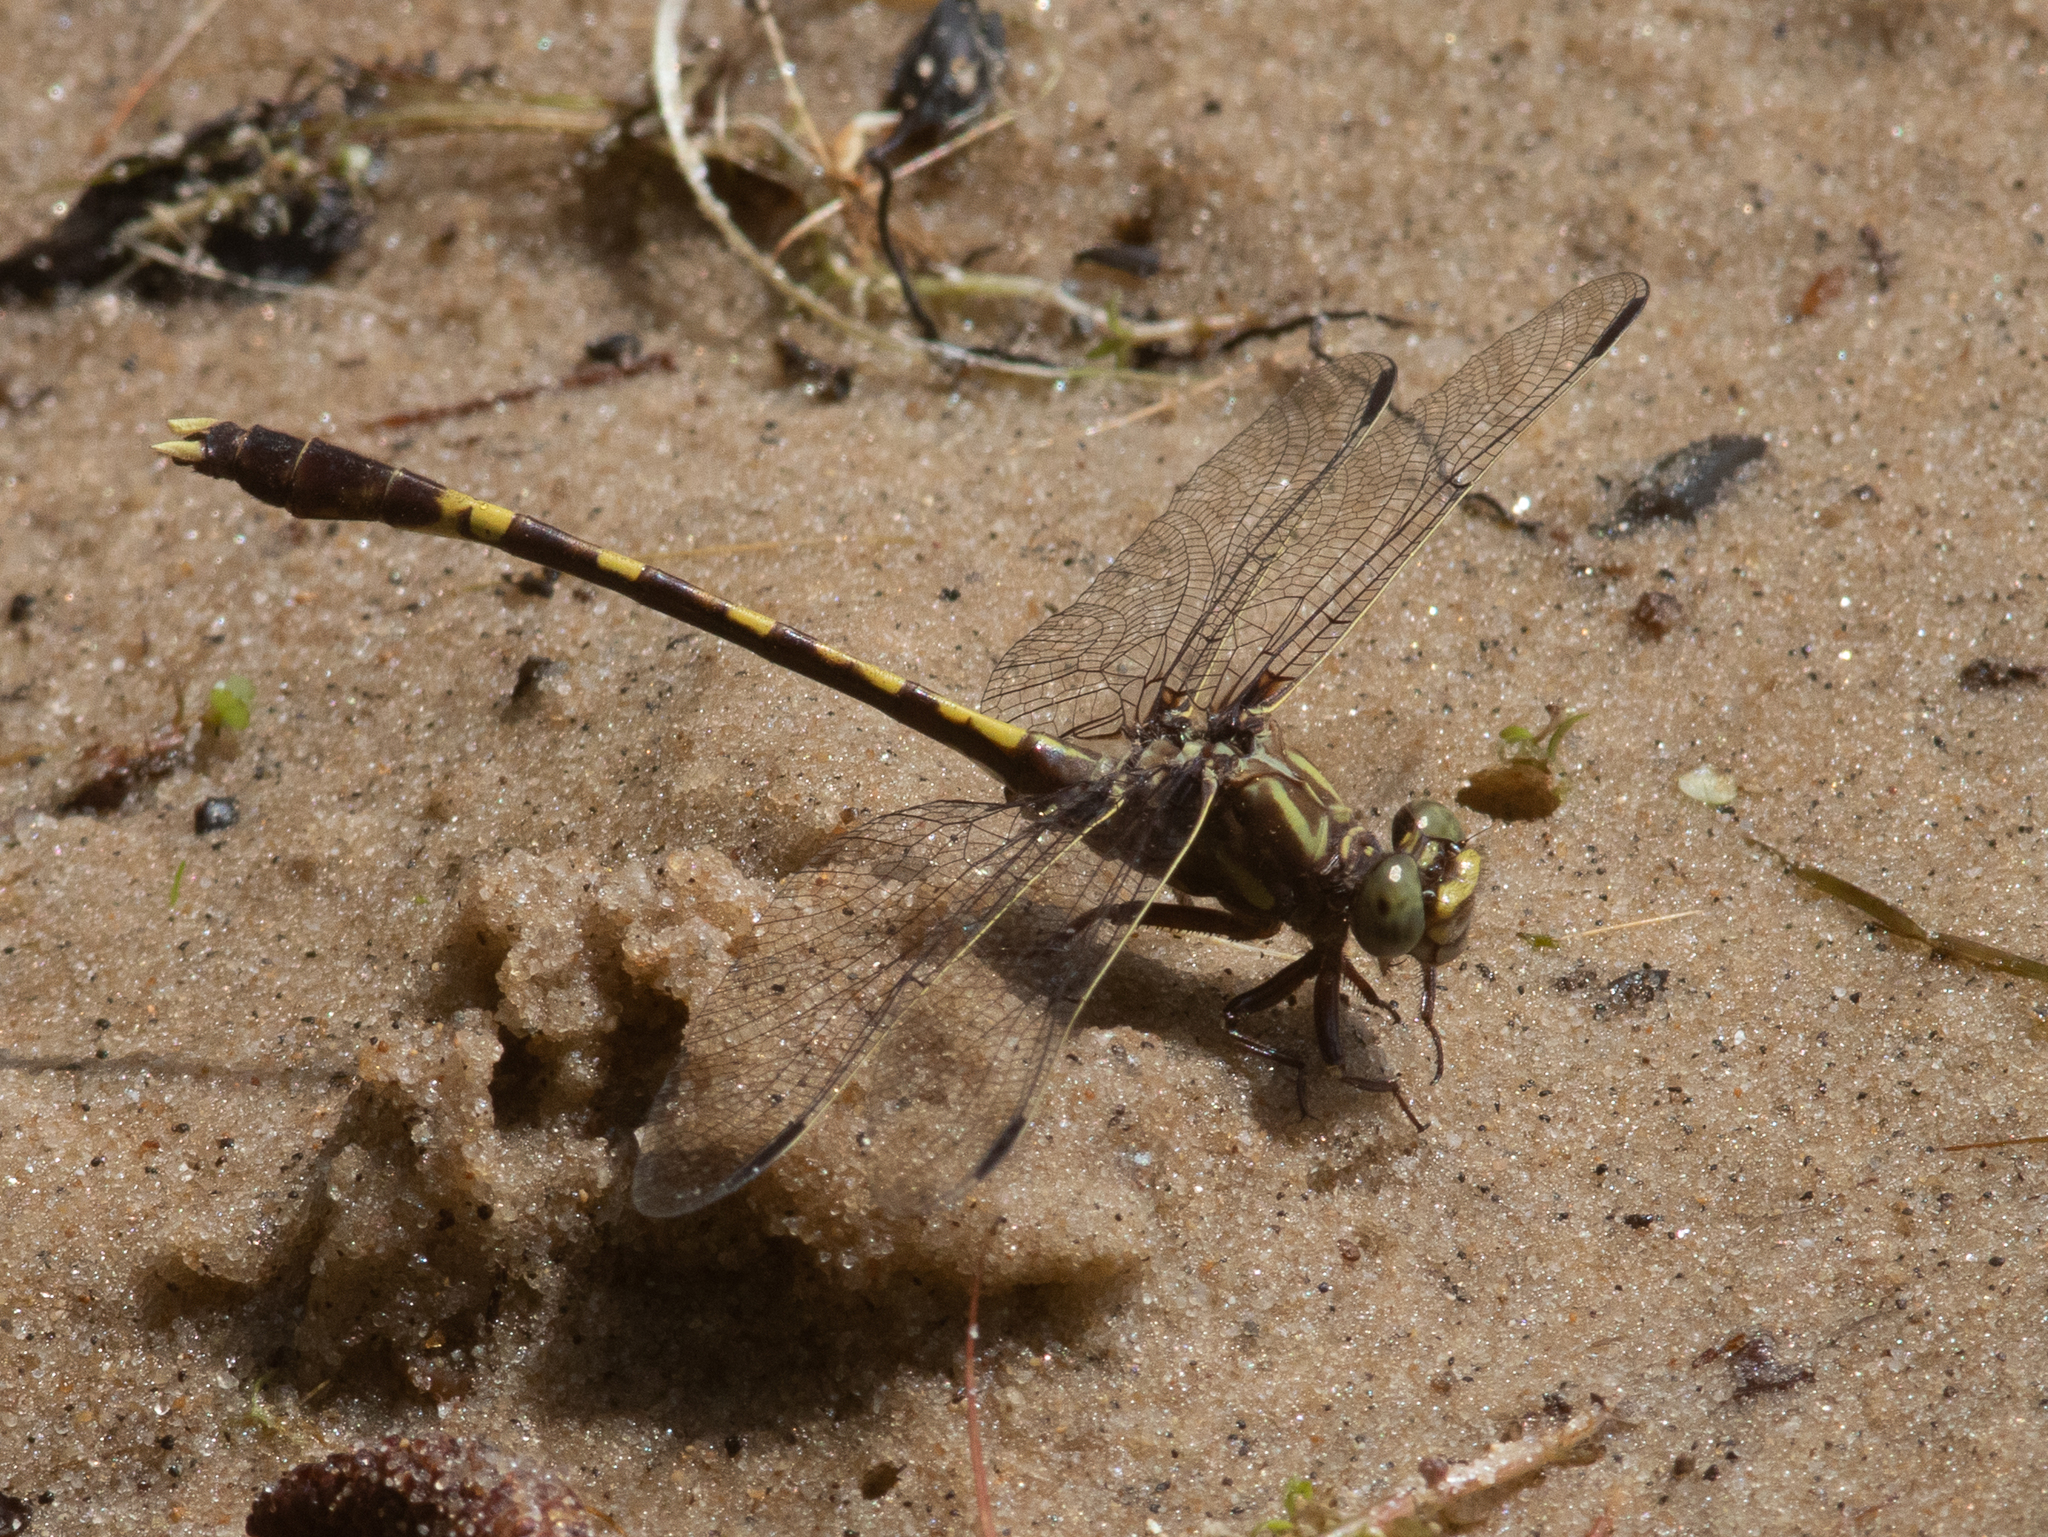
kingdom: Animalia
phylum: Arthropoda
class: Insecta
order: Odonata
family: Gomphidae
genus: Progomphus
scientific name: Progomphus obscurus
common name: Common sanddragon
